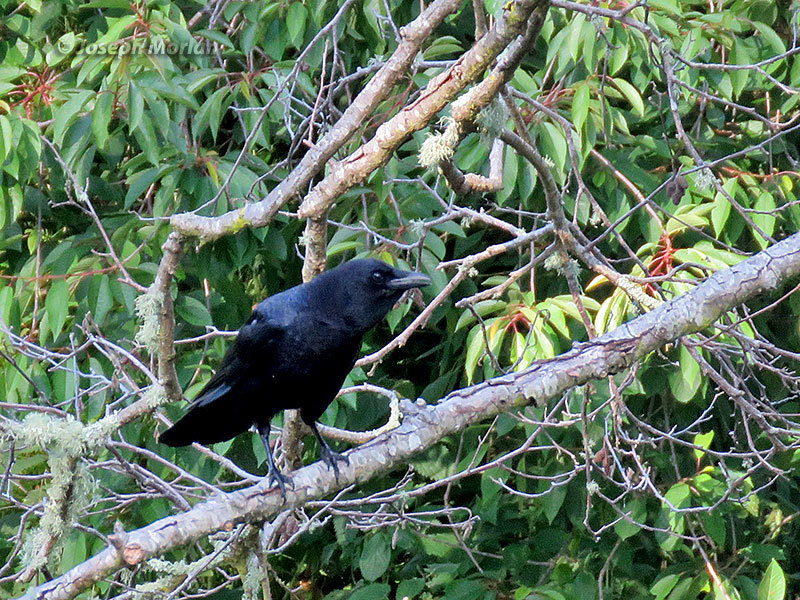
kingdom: Animalia
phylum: Chordata
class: Aves
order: Passeriformes
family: Corvidae
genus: Corvus
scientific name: Corvus brachyrhynchos
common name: American crow
